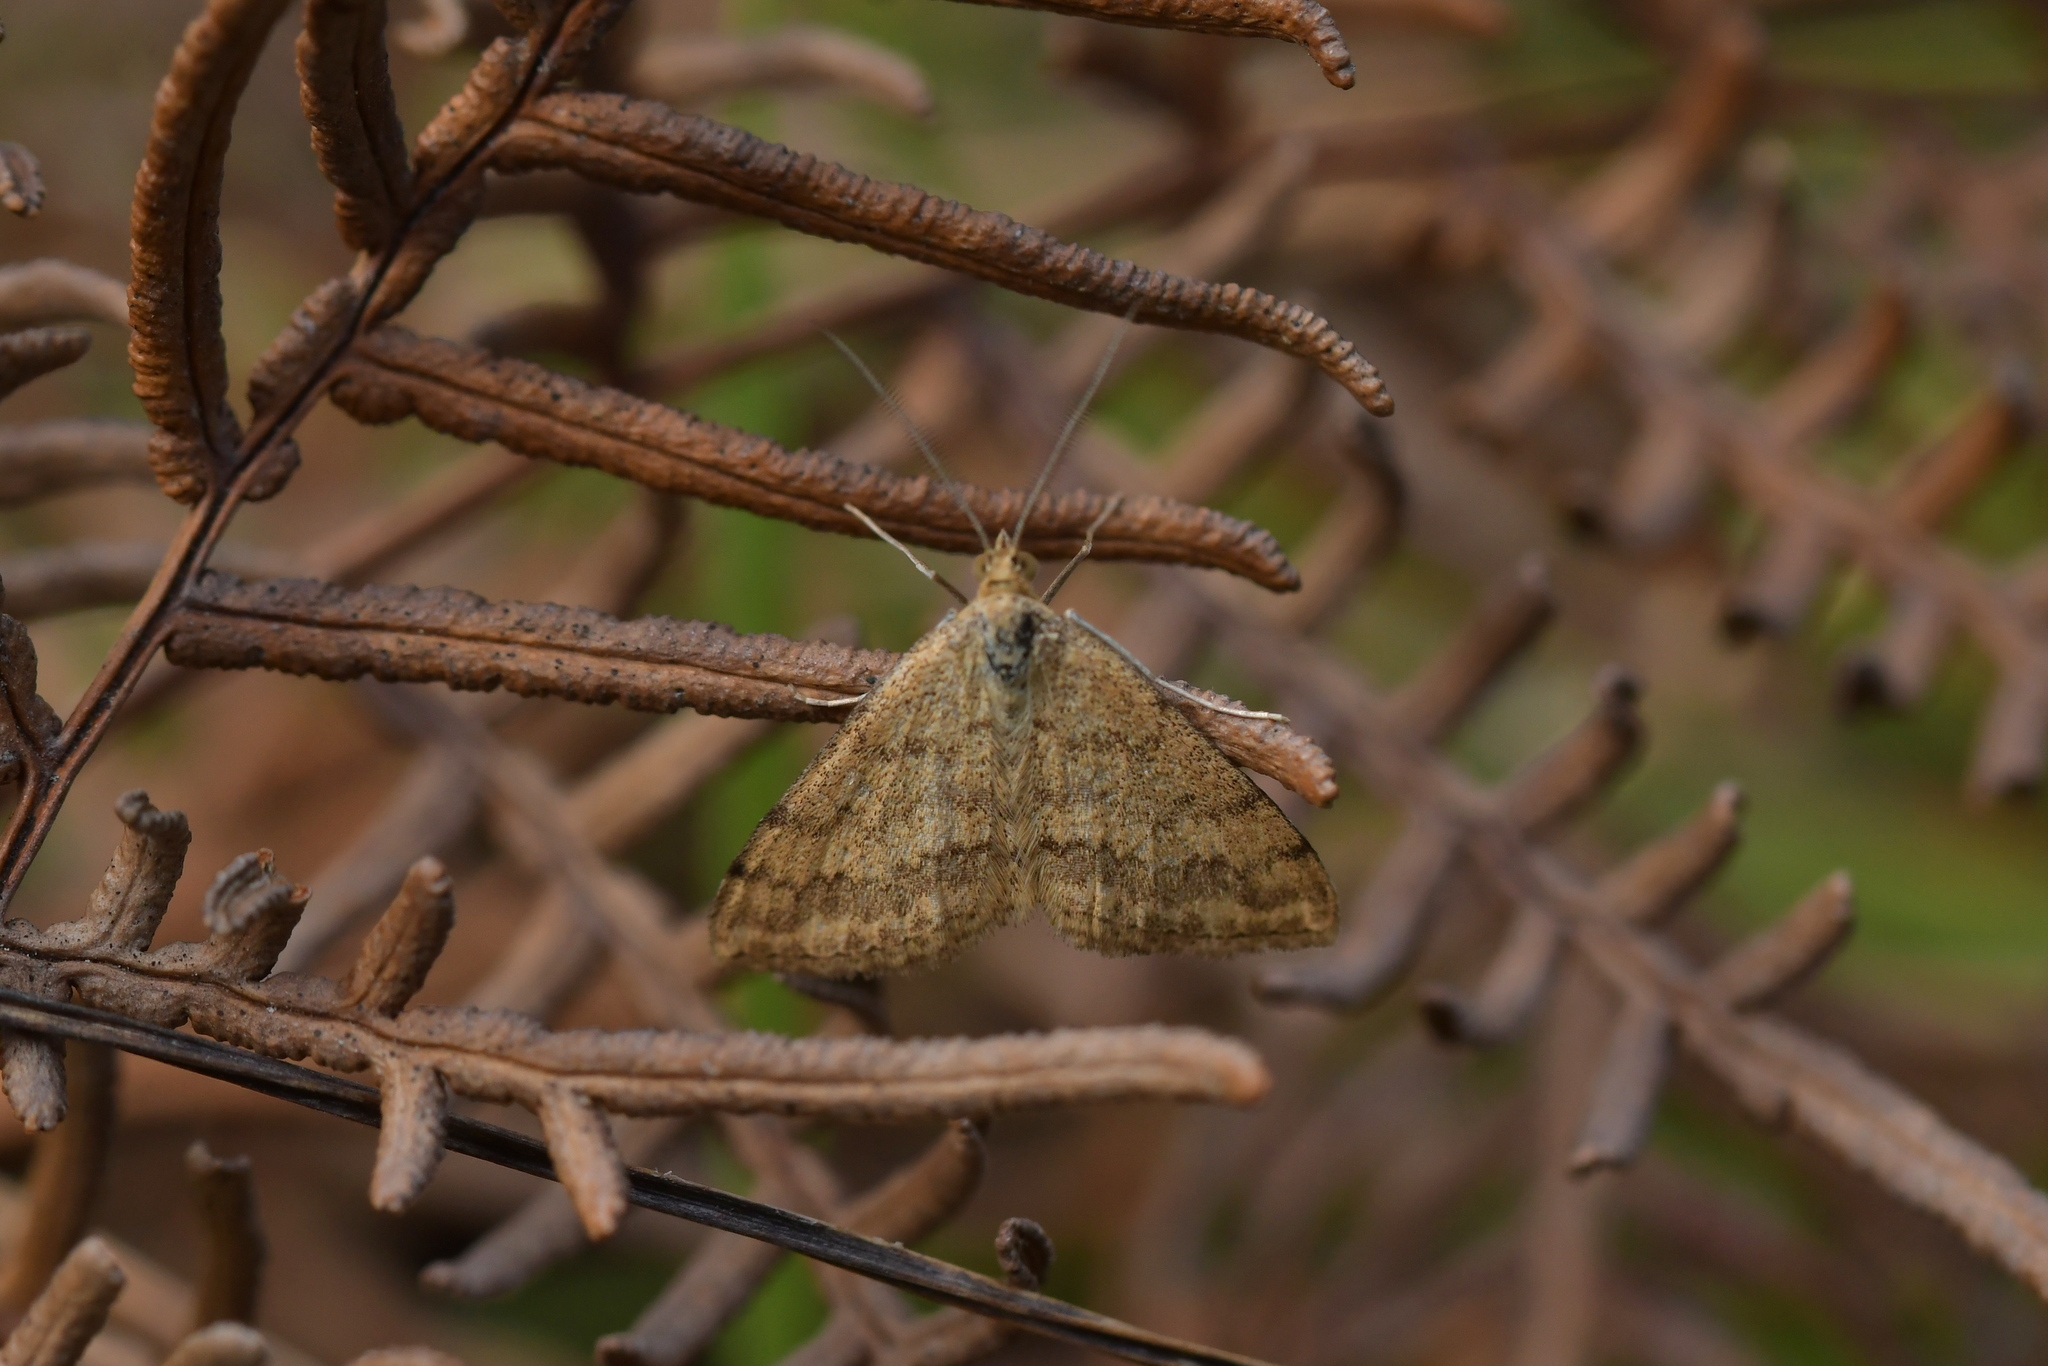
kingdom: Animalia
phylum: Arthropoda
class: Insecta
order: Lepidoptera
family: Geometridae
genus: Scopula
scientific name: Scopula rubraria
